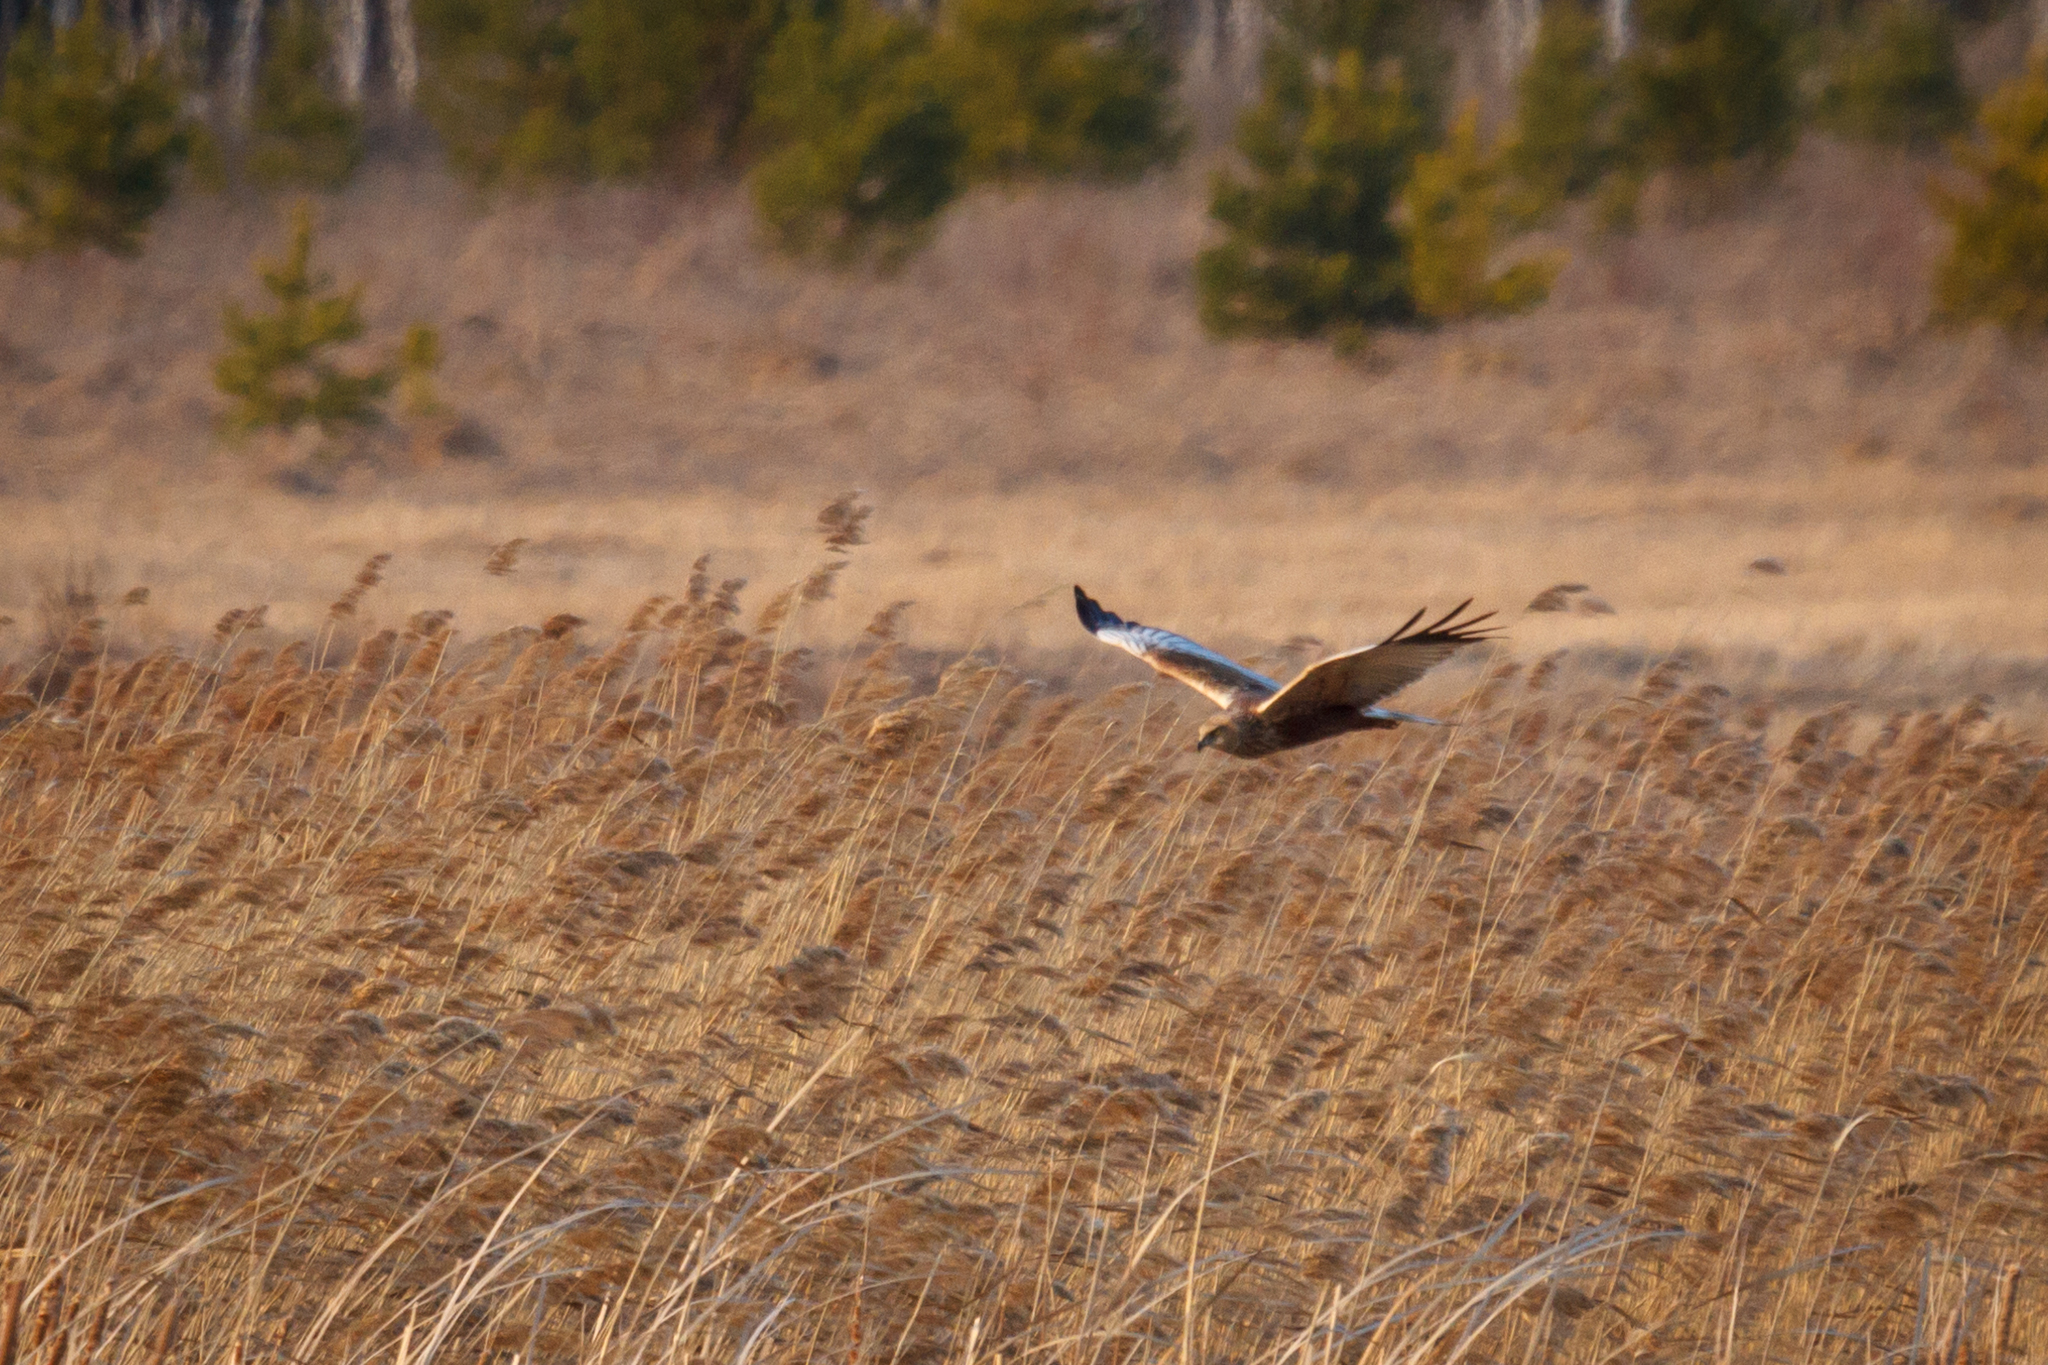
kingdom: Animalia
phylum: Chordata
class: Aves
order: Accipitriformes
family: Accipitridae
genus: Circus
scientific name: Circus aeruginosus
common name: Western marsh harrier
